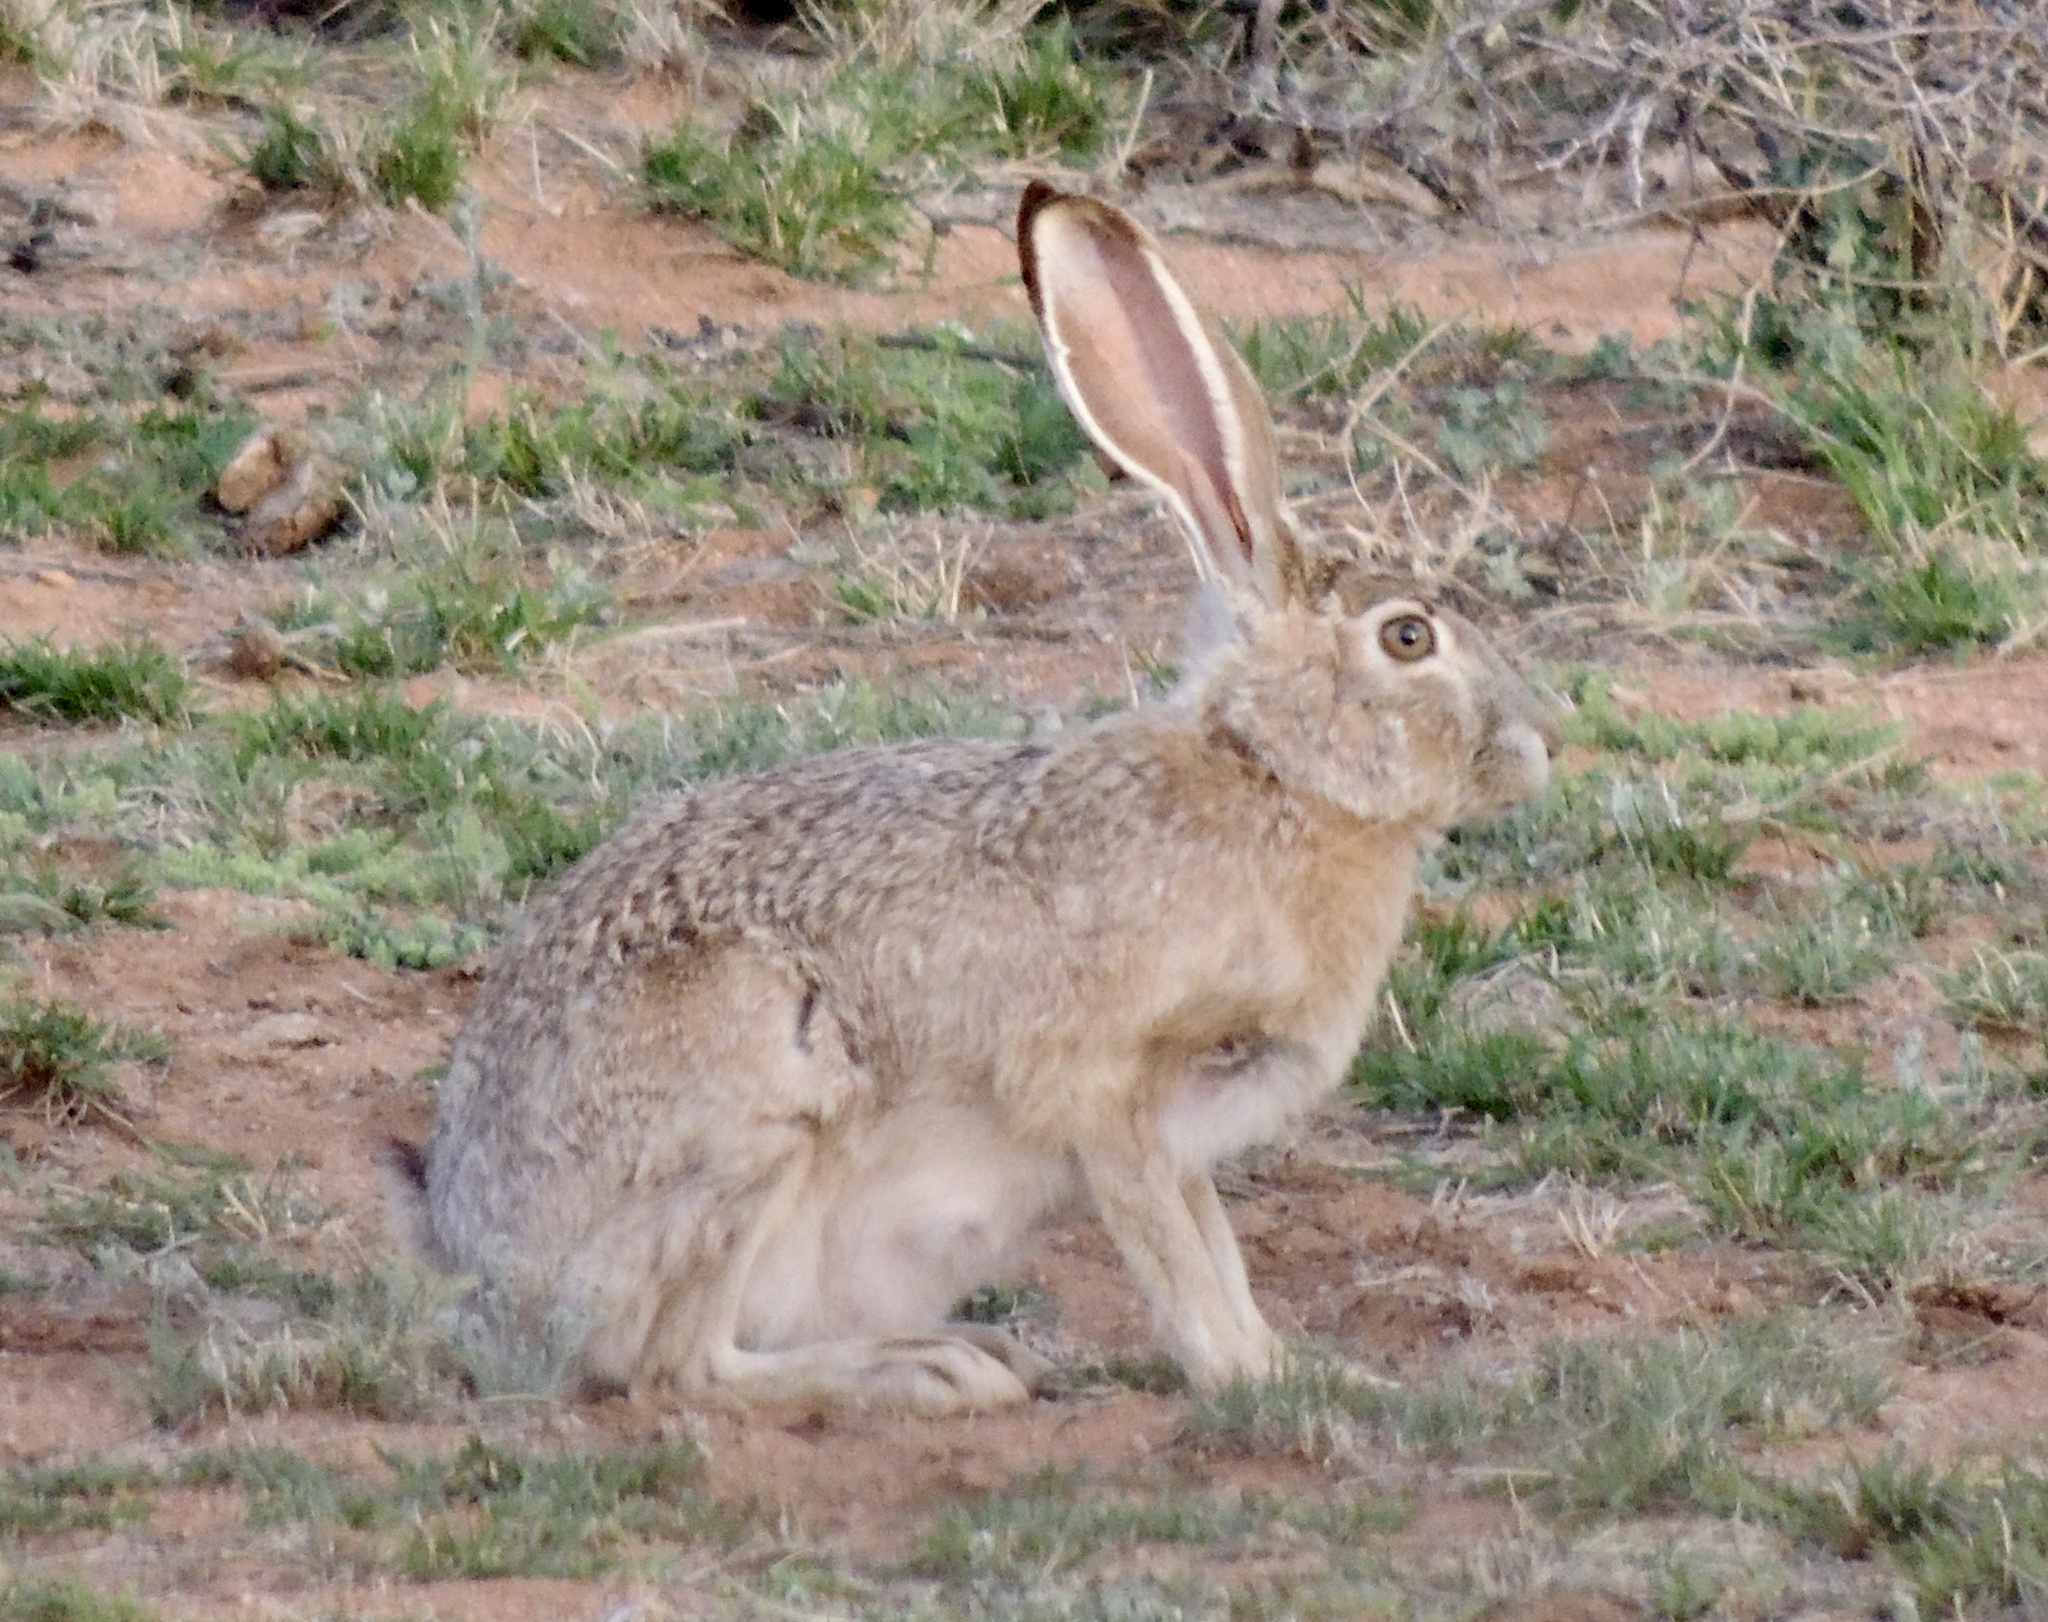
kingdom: Animalia
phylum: Chordata
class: Mammalia
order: Lagomorpha
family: Leporidae
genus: Lepus
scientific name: Lepus californicus
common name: Black-tailed jackrabbit
